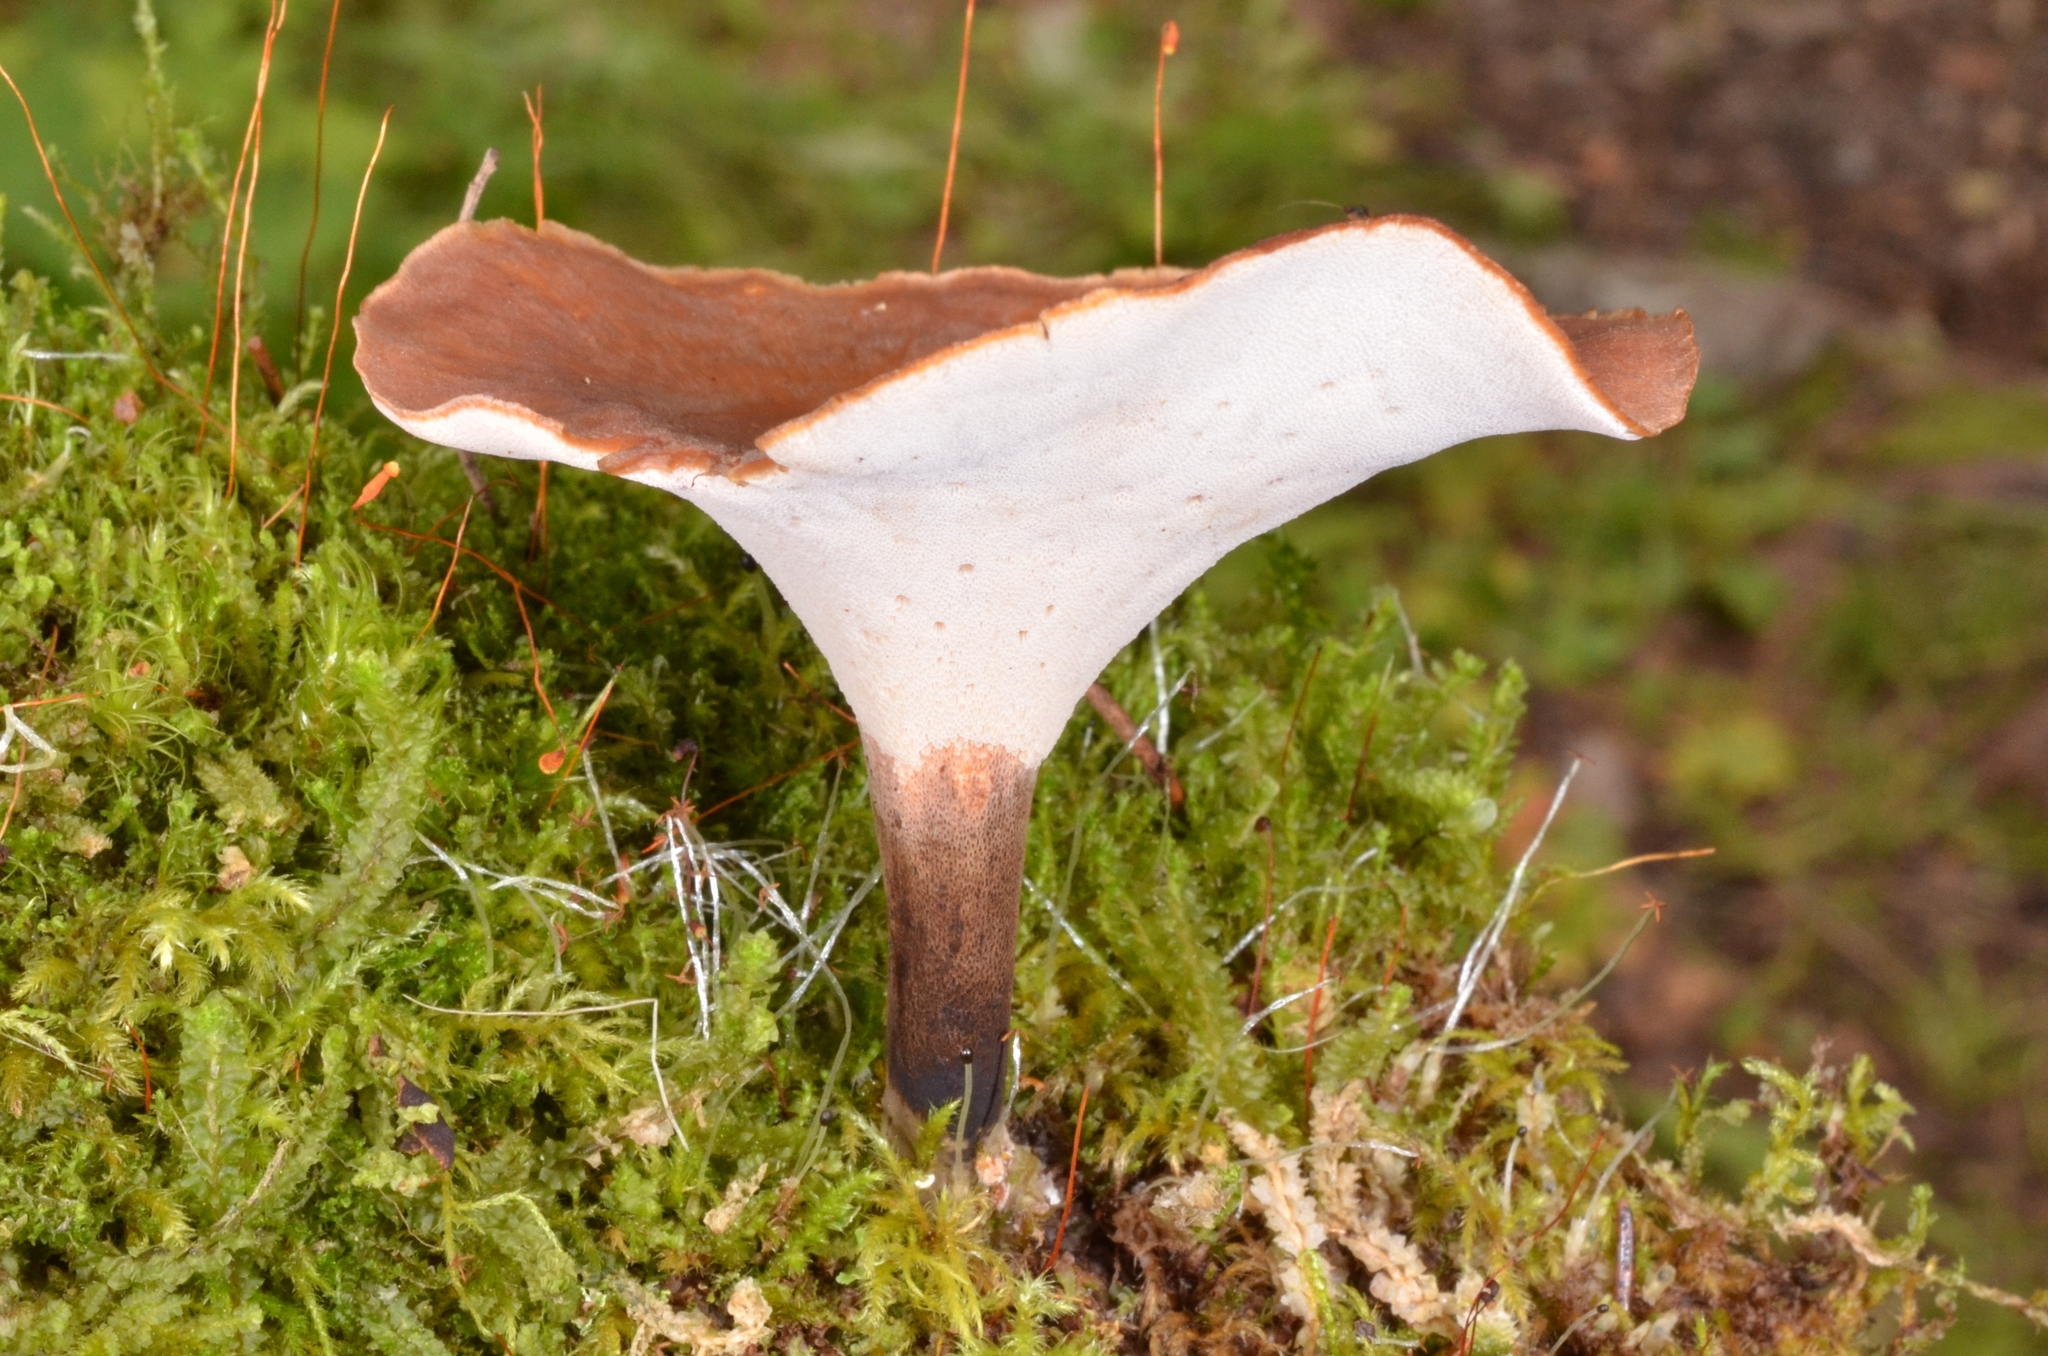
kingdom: Fungi
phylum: Basidiomycota
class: Agaricomycetes
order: Polyporales
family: Polyporaceae
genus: Cerioporus
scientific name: Cerioporus varius
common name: Elegant polypore
